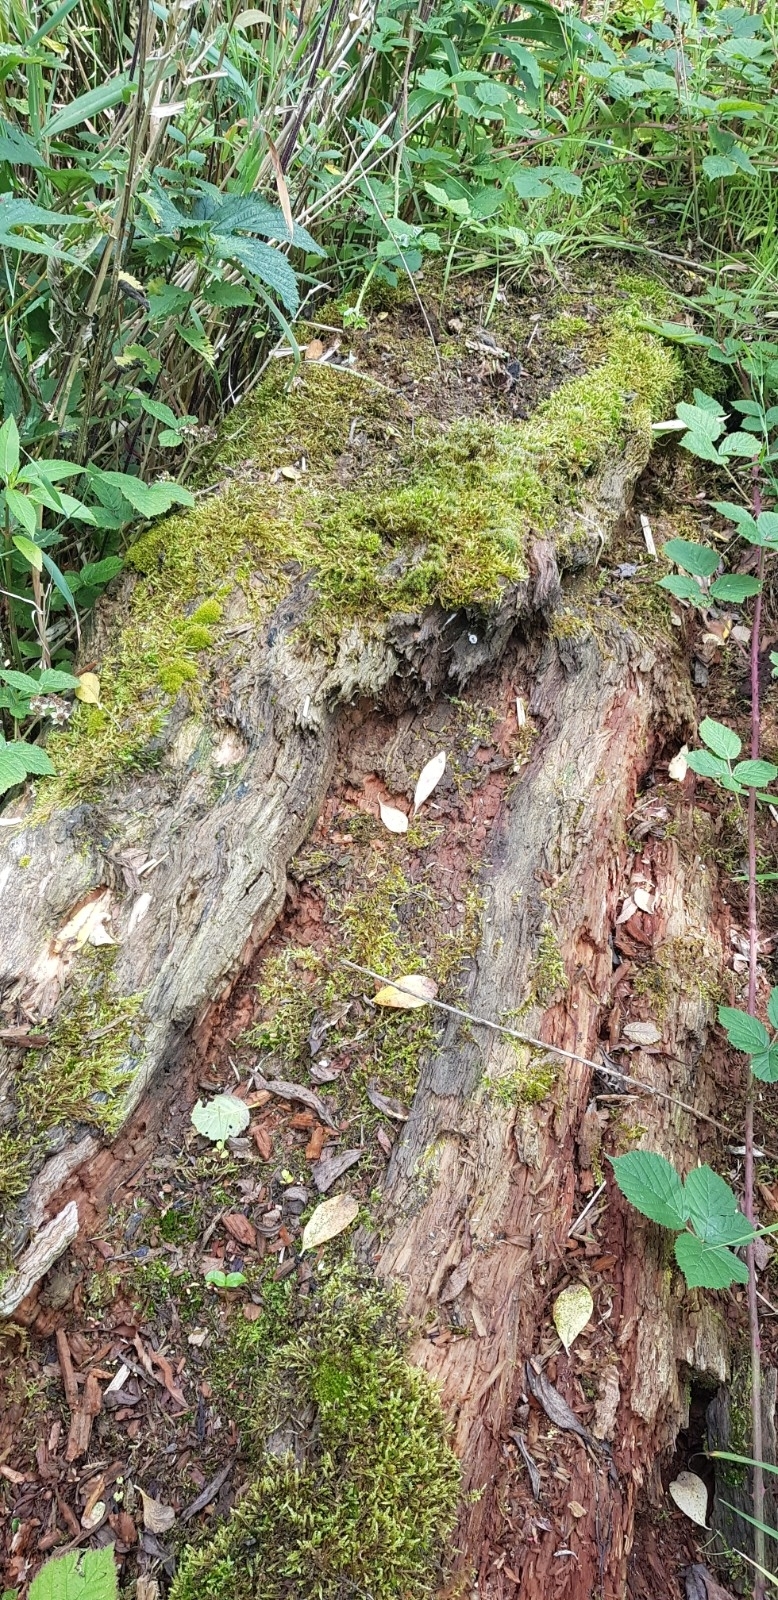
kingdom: Plantae
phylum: Bryophyta
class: Bryopsida
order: Aulacomniales
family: Aulacomniaceae
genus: Aulacomnium
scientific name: Aulacomnium androgynum
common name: Little groove moss
